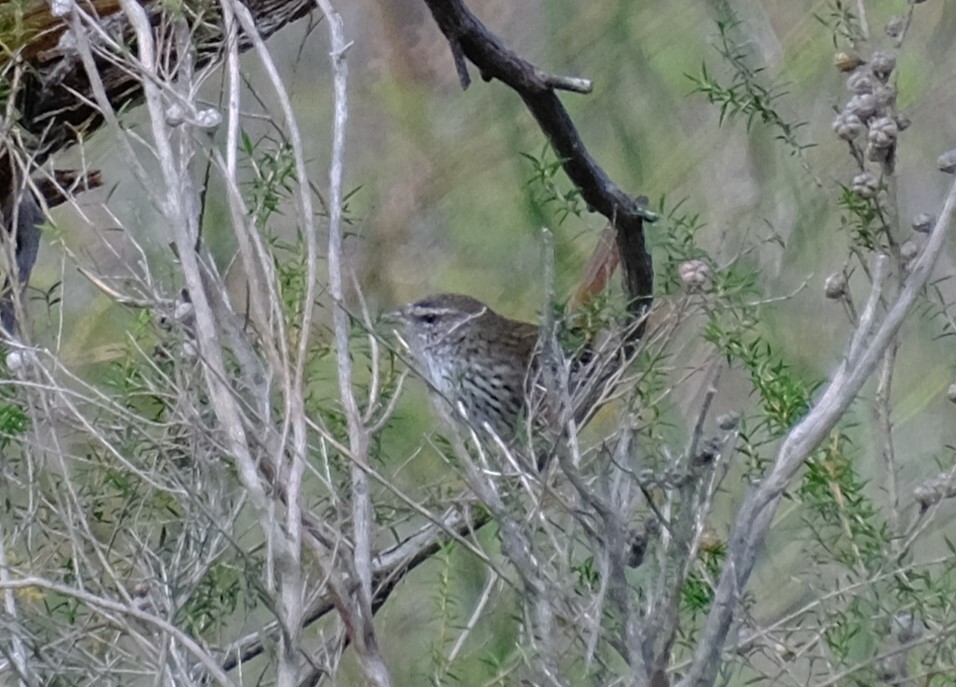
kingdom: Animalia
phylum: Chordata
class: Aves
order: Passeriformes
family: Acanthizidae
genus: Calamanthus
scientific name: Calamanthus pyrrhopygius
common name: Chestnut-rumped heathwren
